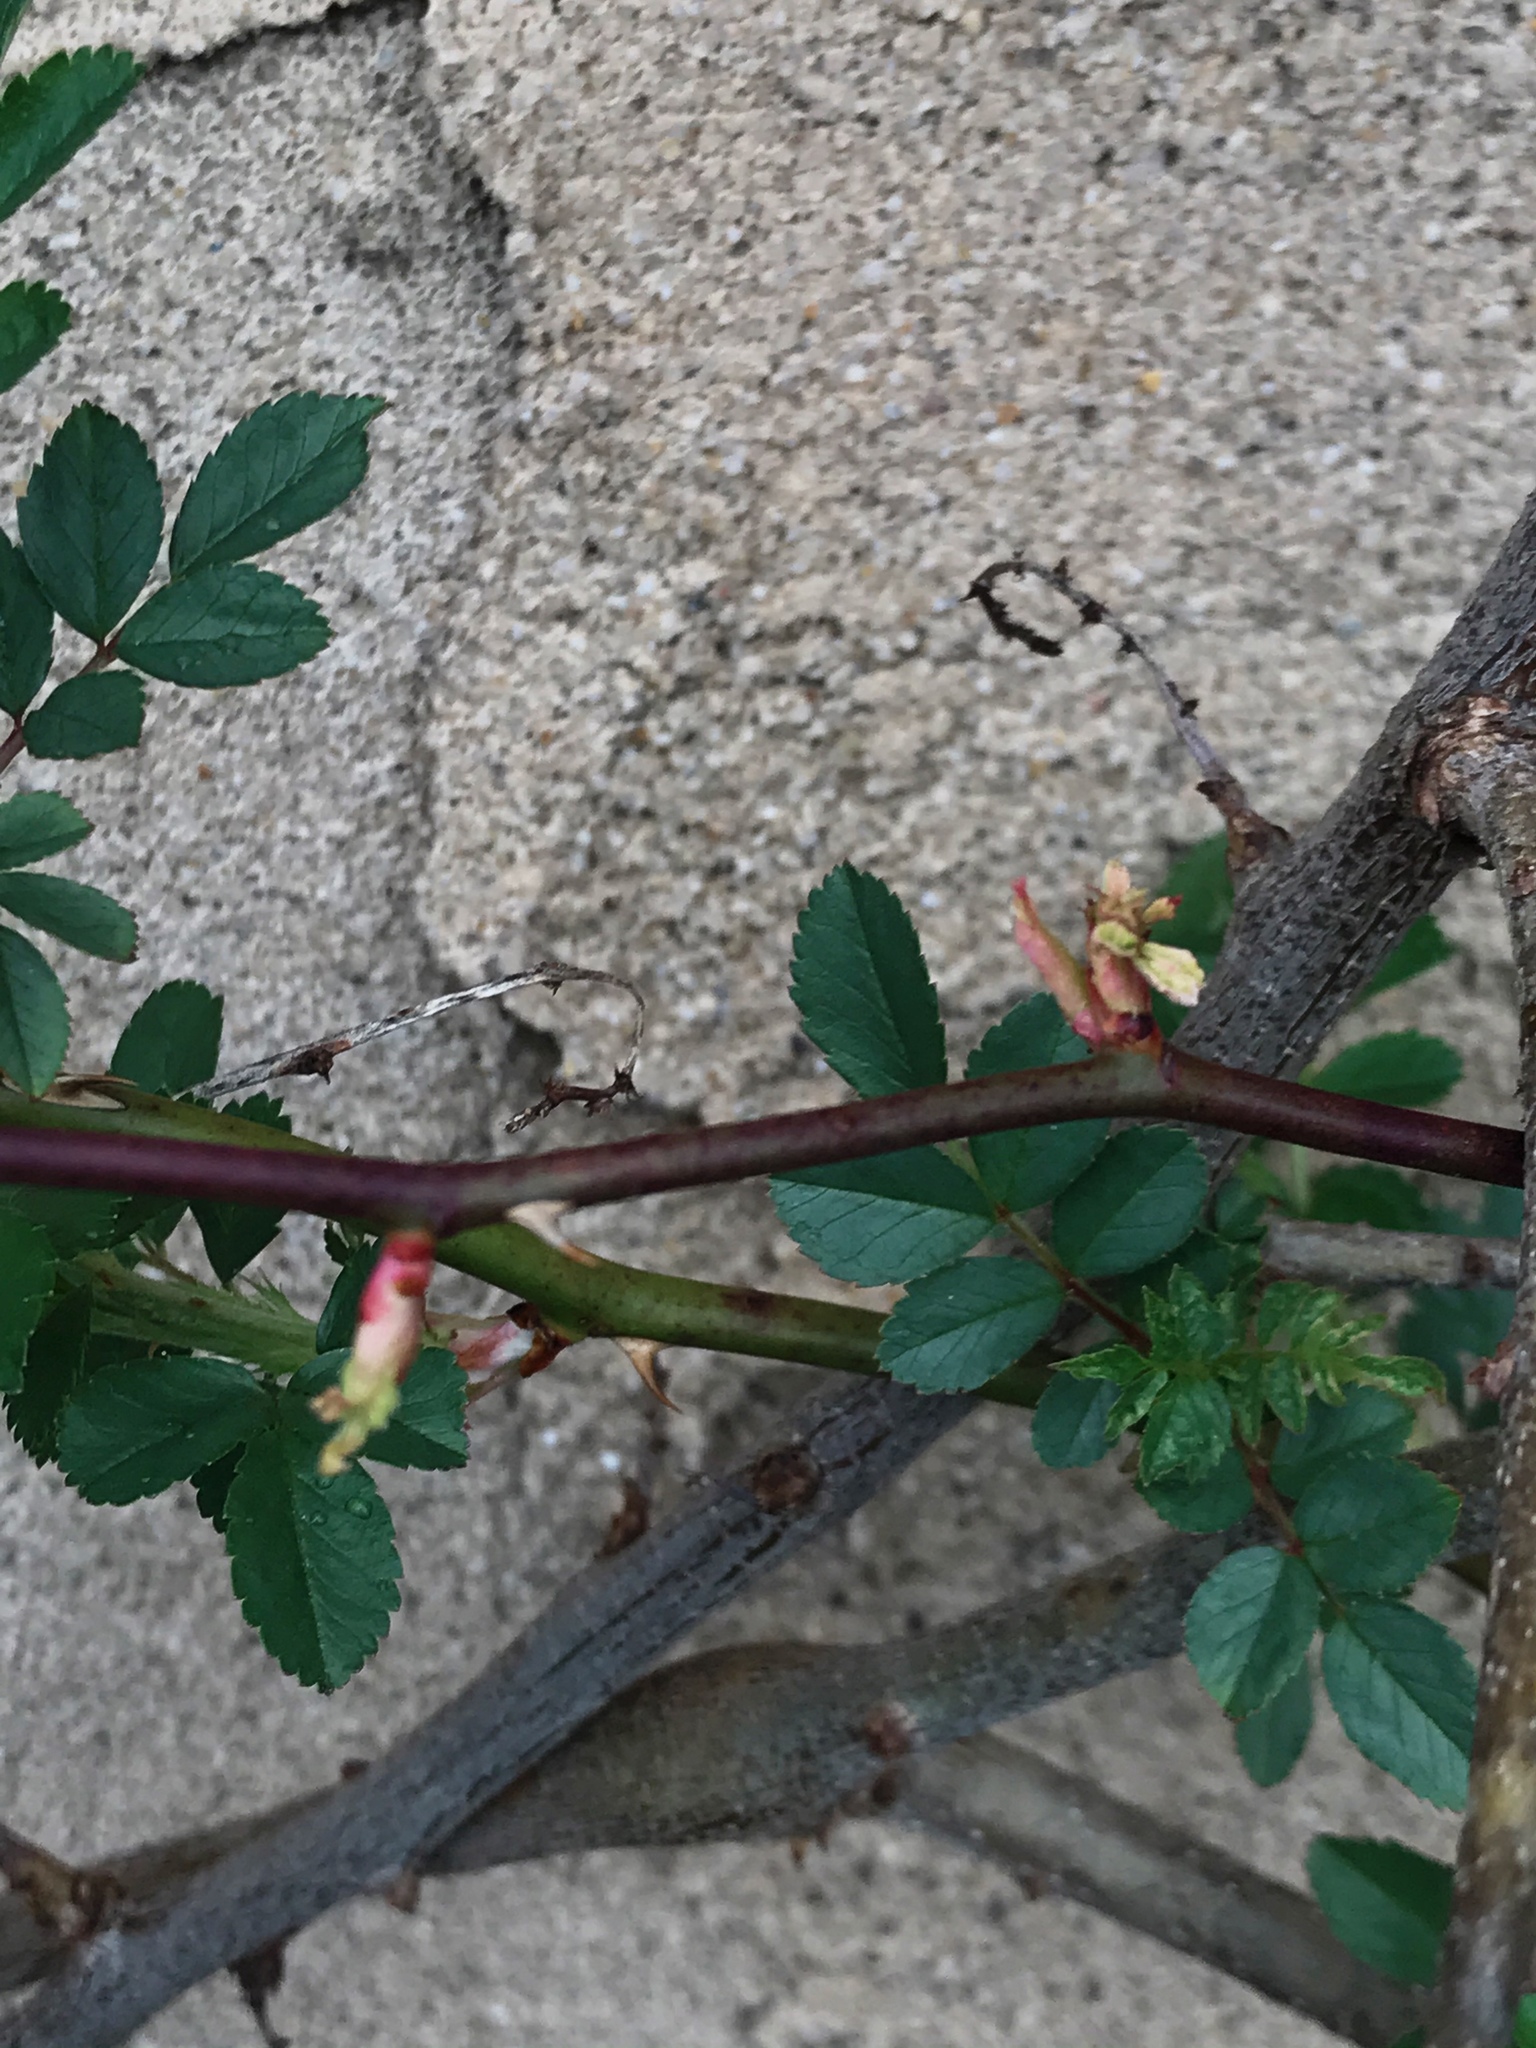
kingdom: Plantae
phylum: Tracheophyta
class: Magnoliopsida
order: Rosales
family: Rosaceae
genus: Rosa
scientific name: Rosa multiflora
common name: Multiflora rose
